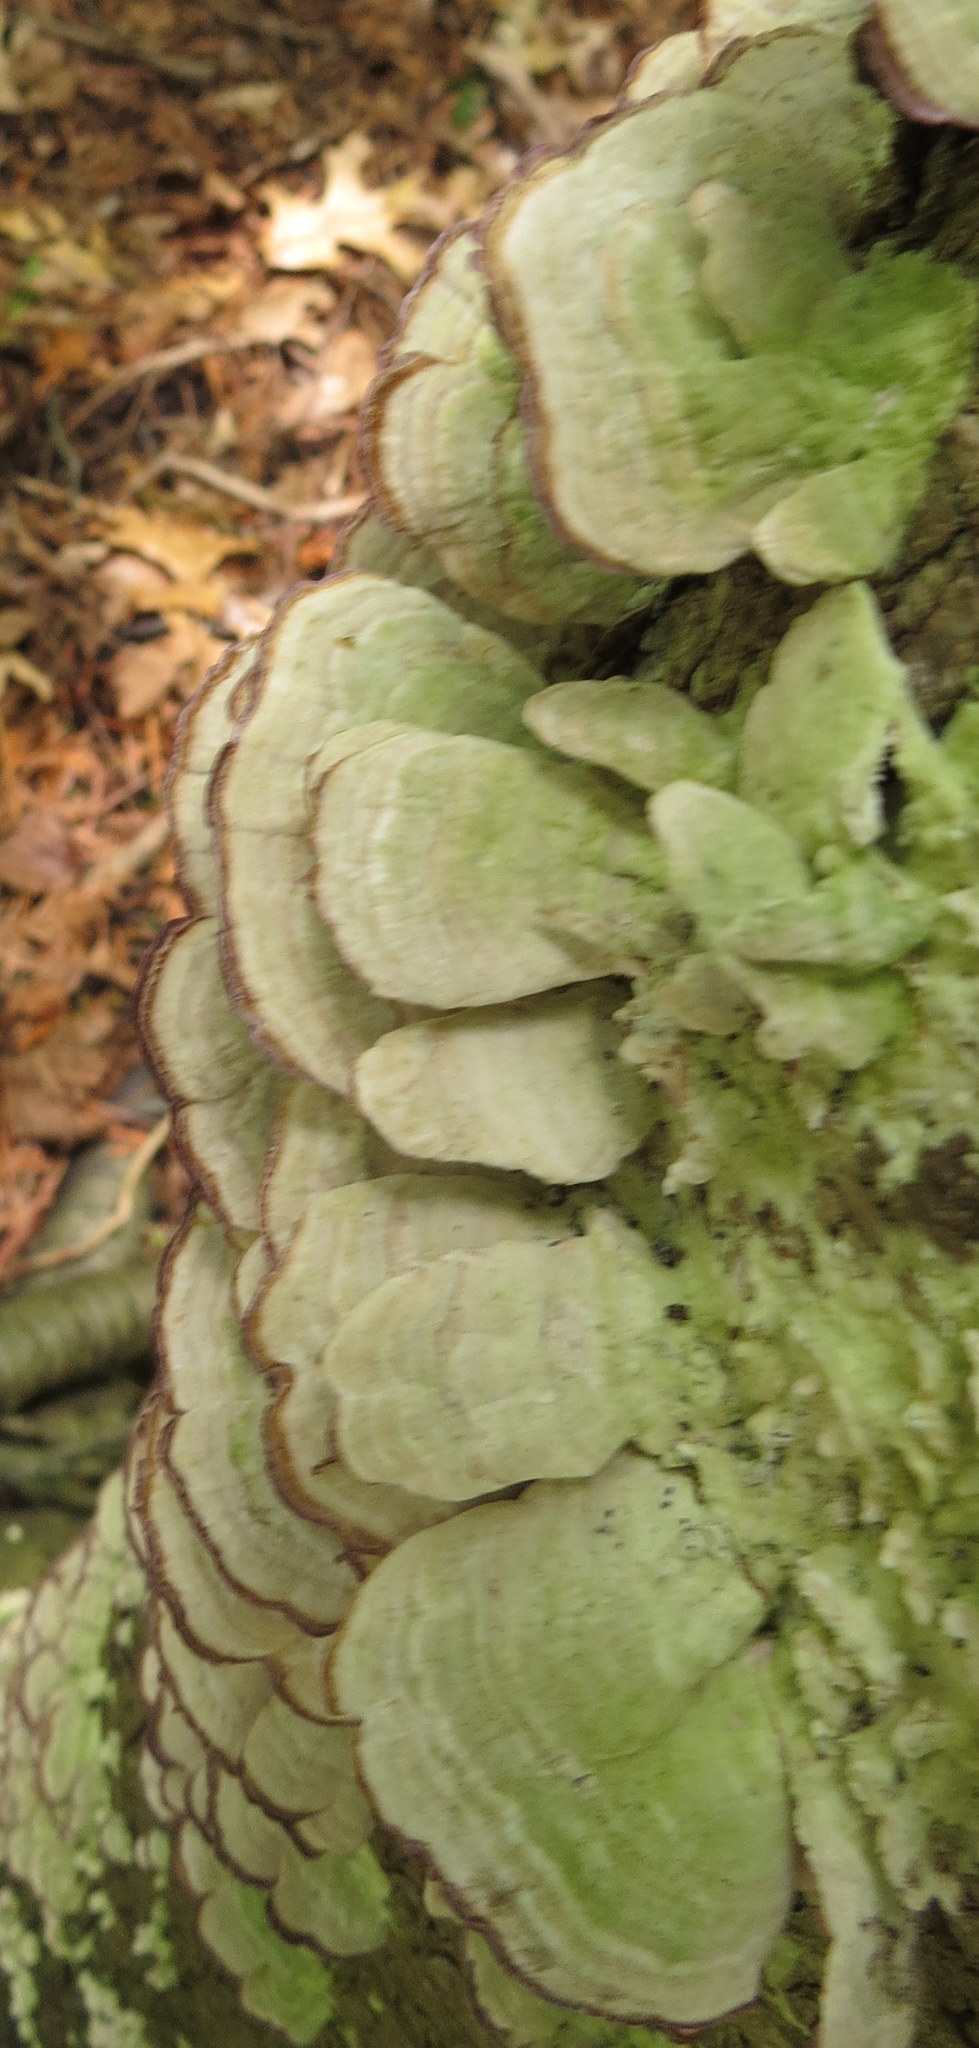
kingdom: Fungi
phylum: Basidiomycota
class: Agaricomycetes
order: Hymenochaetales
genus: Trichaptum
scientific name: Trichaptum biforme
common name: Violet-toothed polypore
